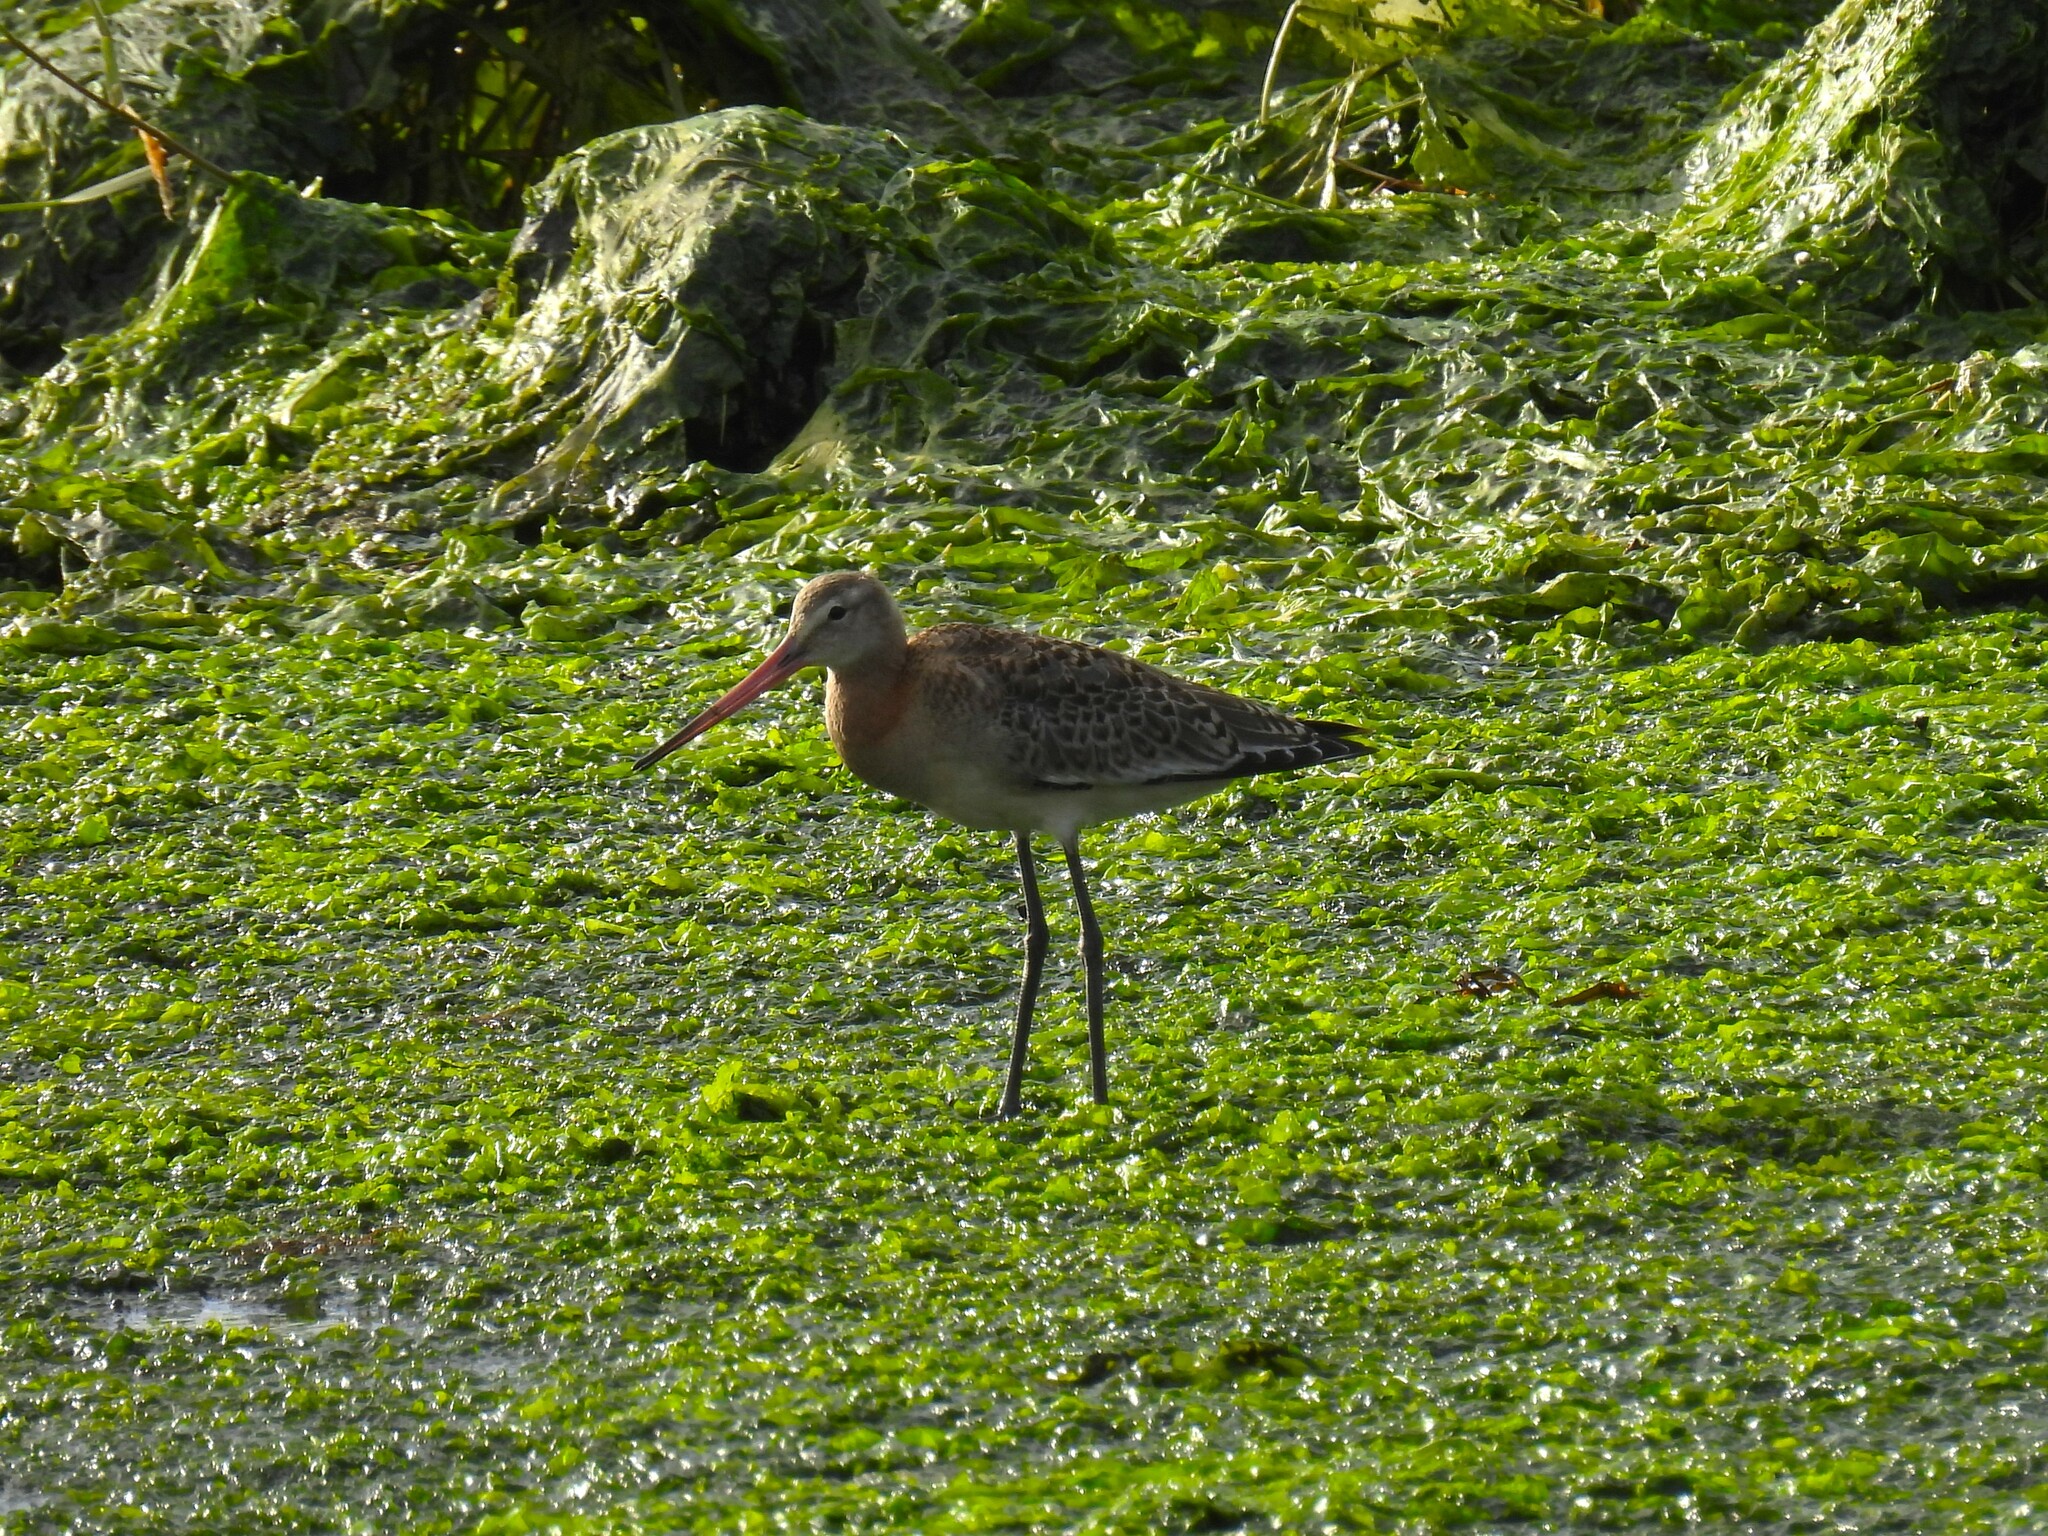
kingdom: Animalia
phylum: Chordata
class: Aves
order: Charadriiformes
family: Scolopacidae
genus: Limosa
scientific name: Limosa limosa
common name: Black-tailed godwit
